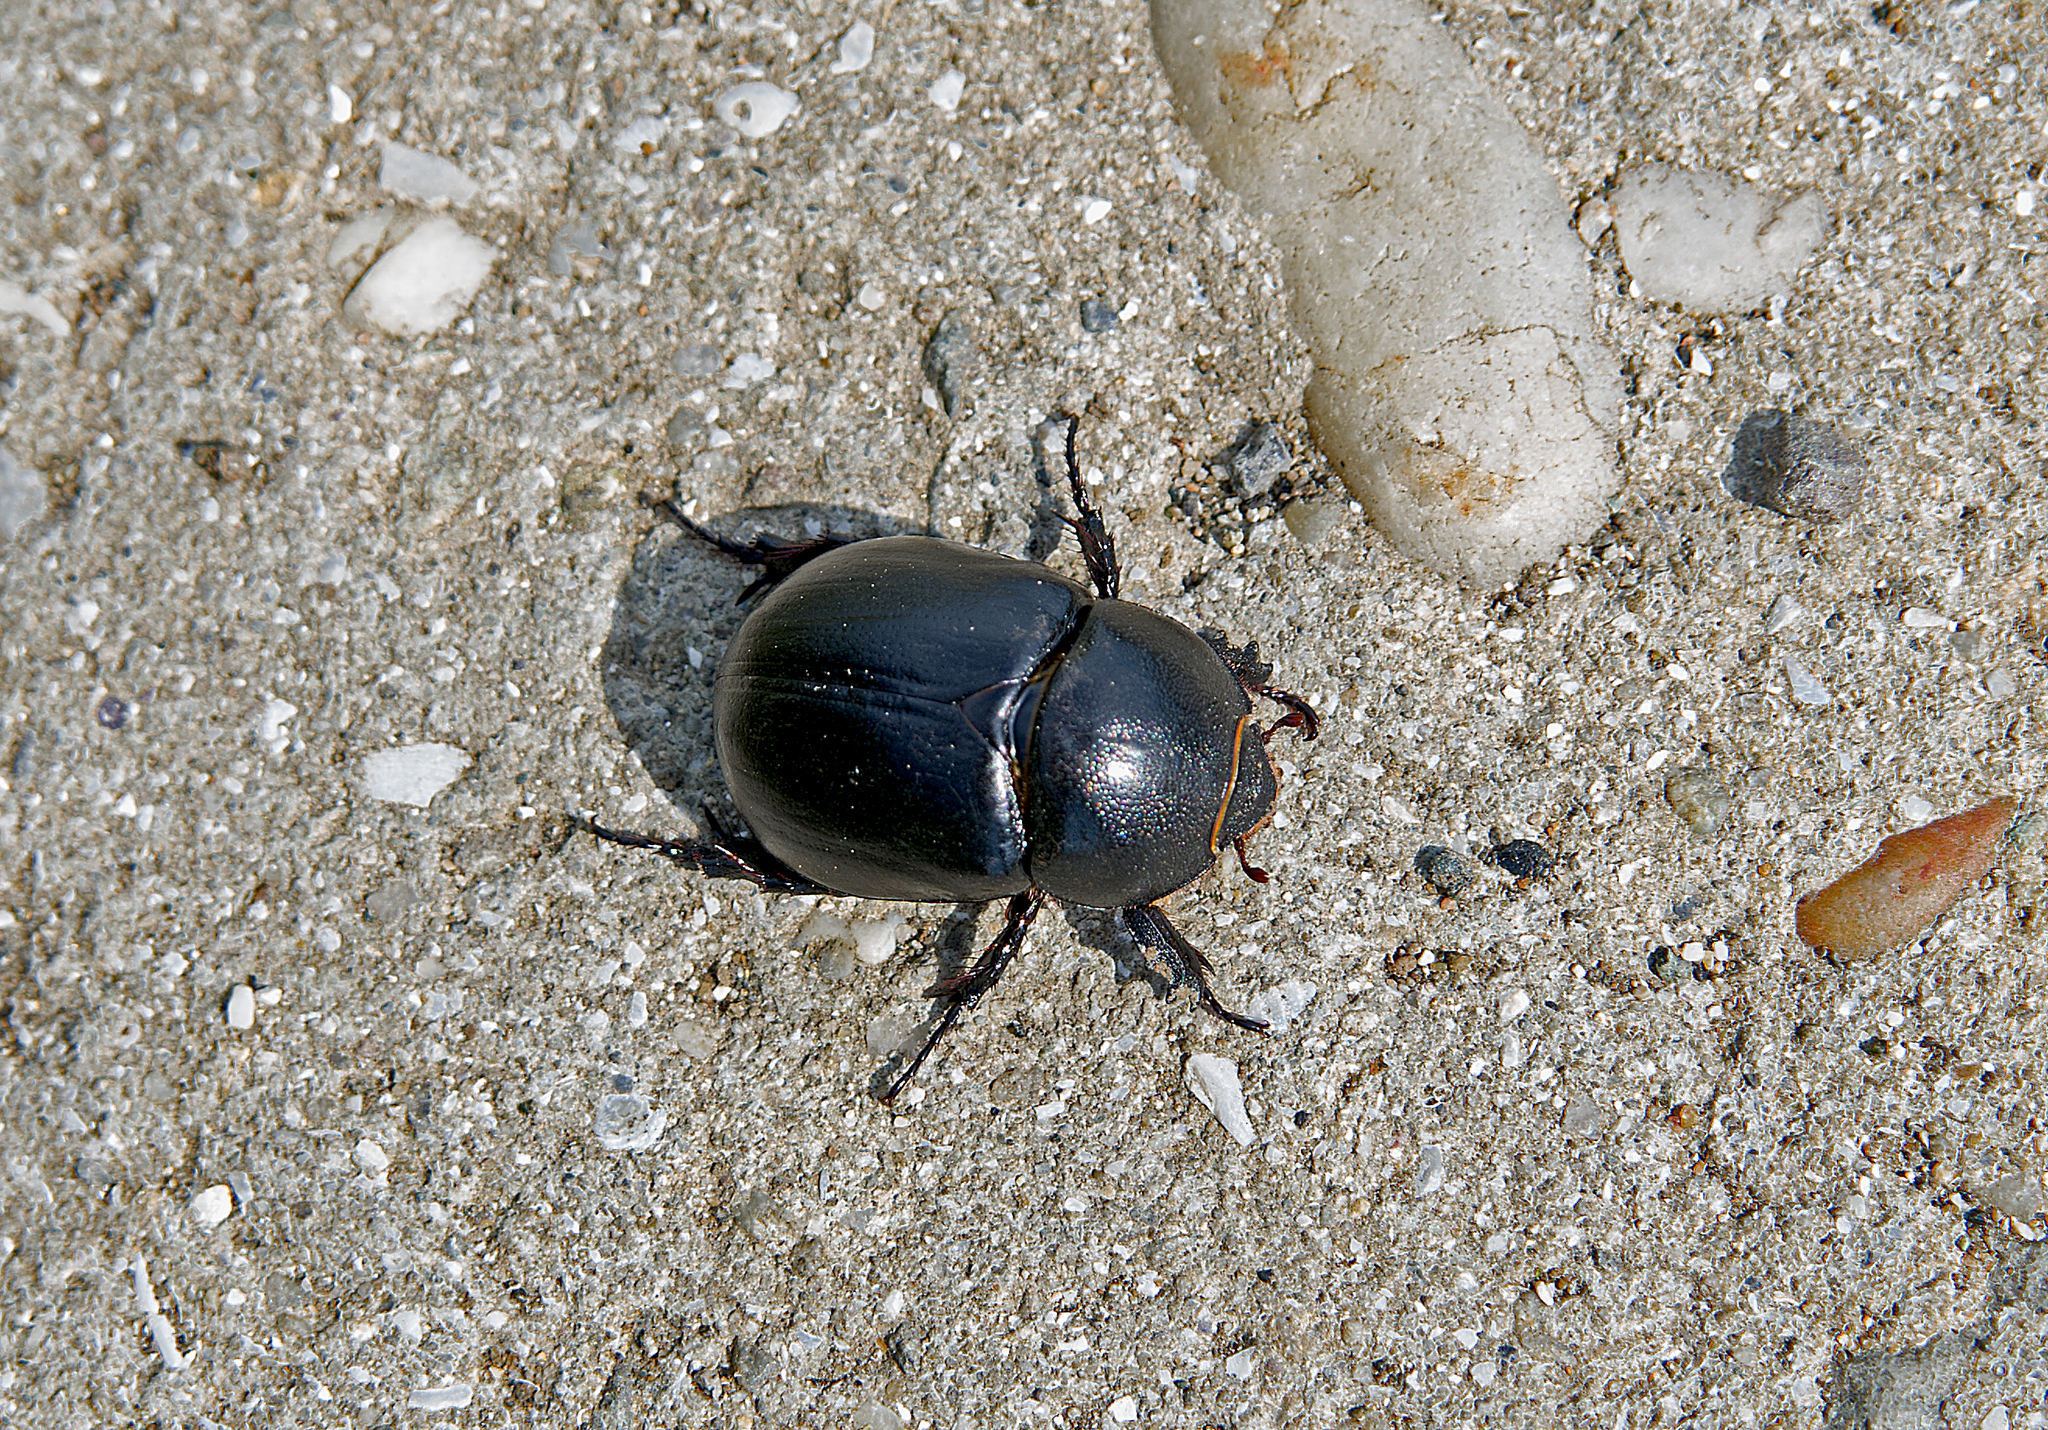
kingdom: Animalia
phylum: Arthropoda
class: Insecta
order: Coleoptera
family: Scarabaeidae
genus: Pentodon
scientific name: Pentodon bidens
